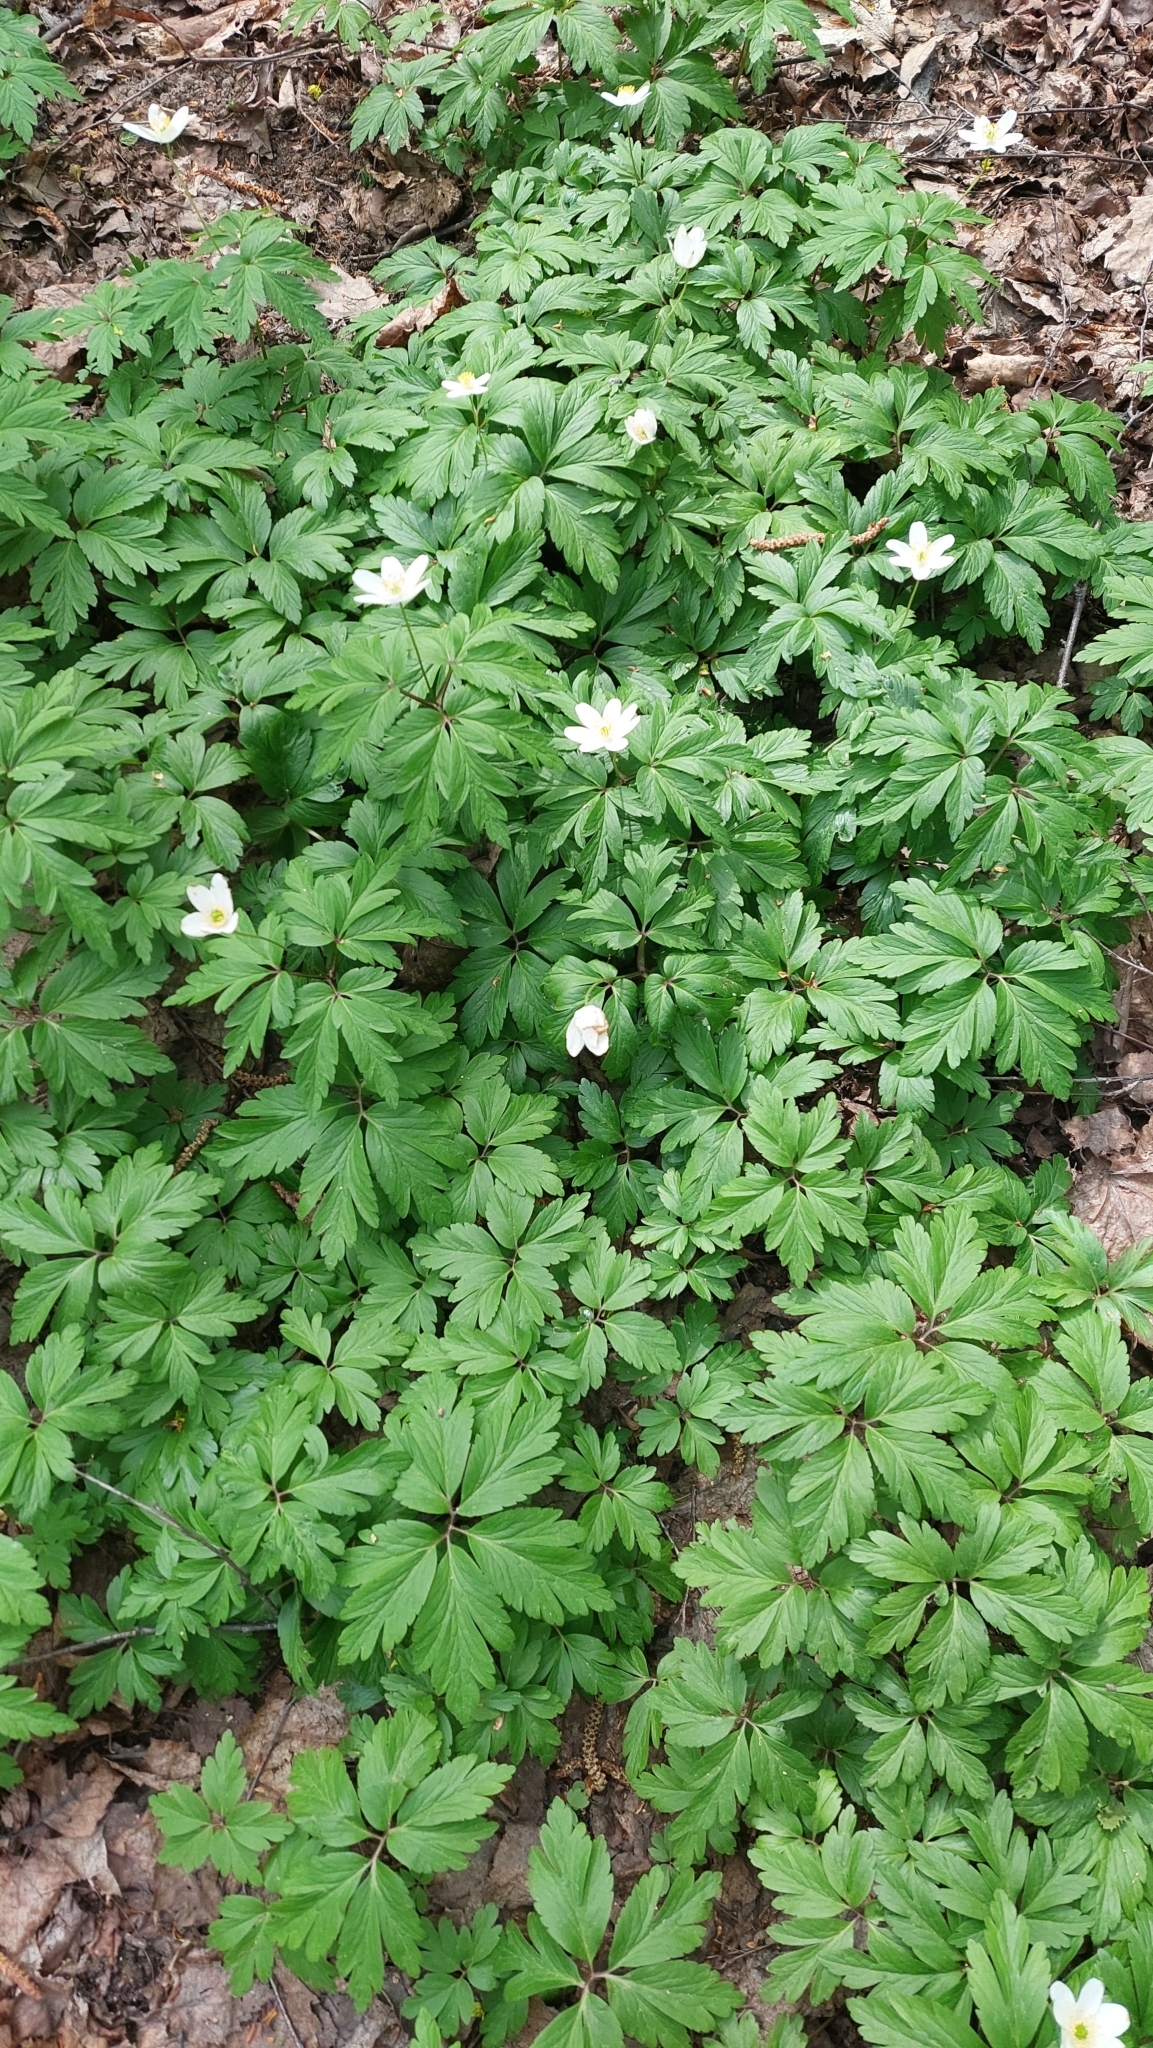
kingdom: Plantae
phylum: Tracheophyta
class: Magnoliopsida
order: Ranunculales
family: Ranunculaceae
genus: Anemone
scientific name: Anemone nemorosa
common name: Wood anemone
